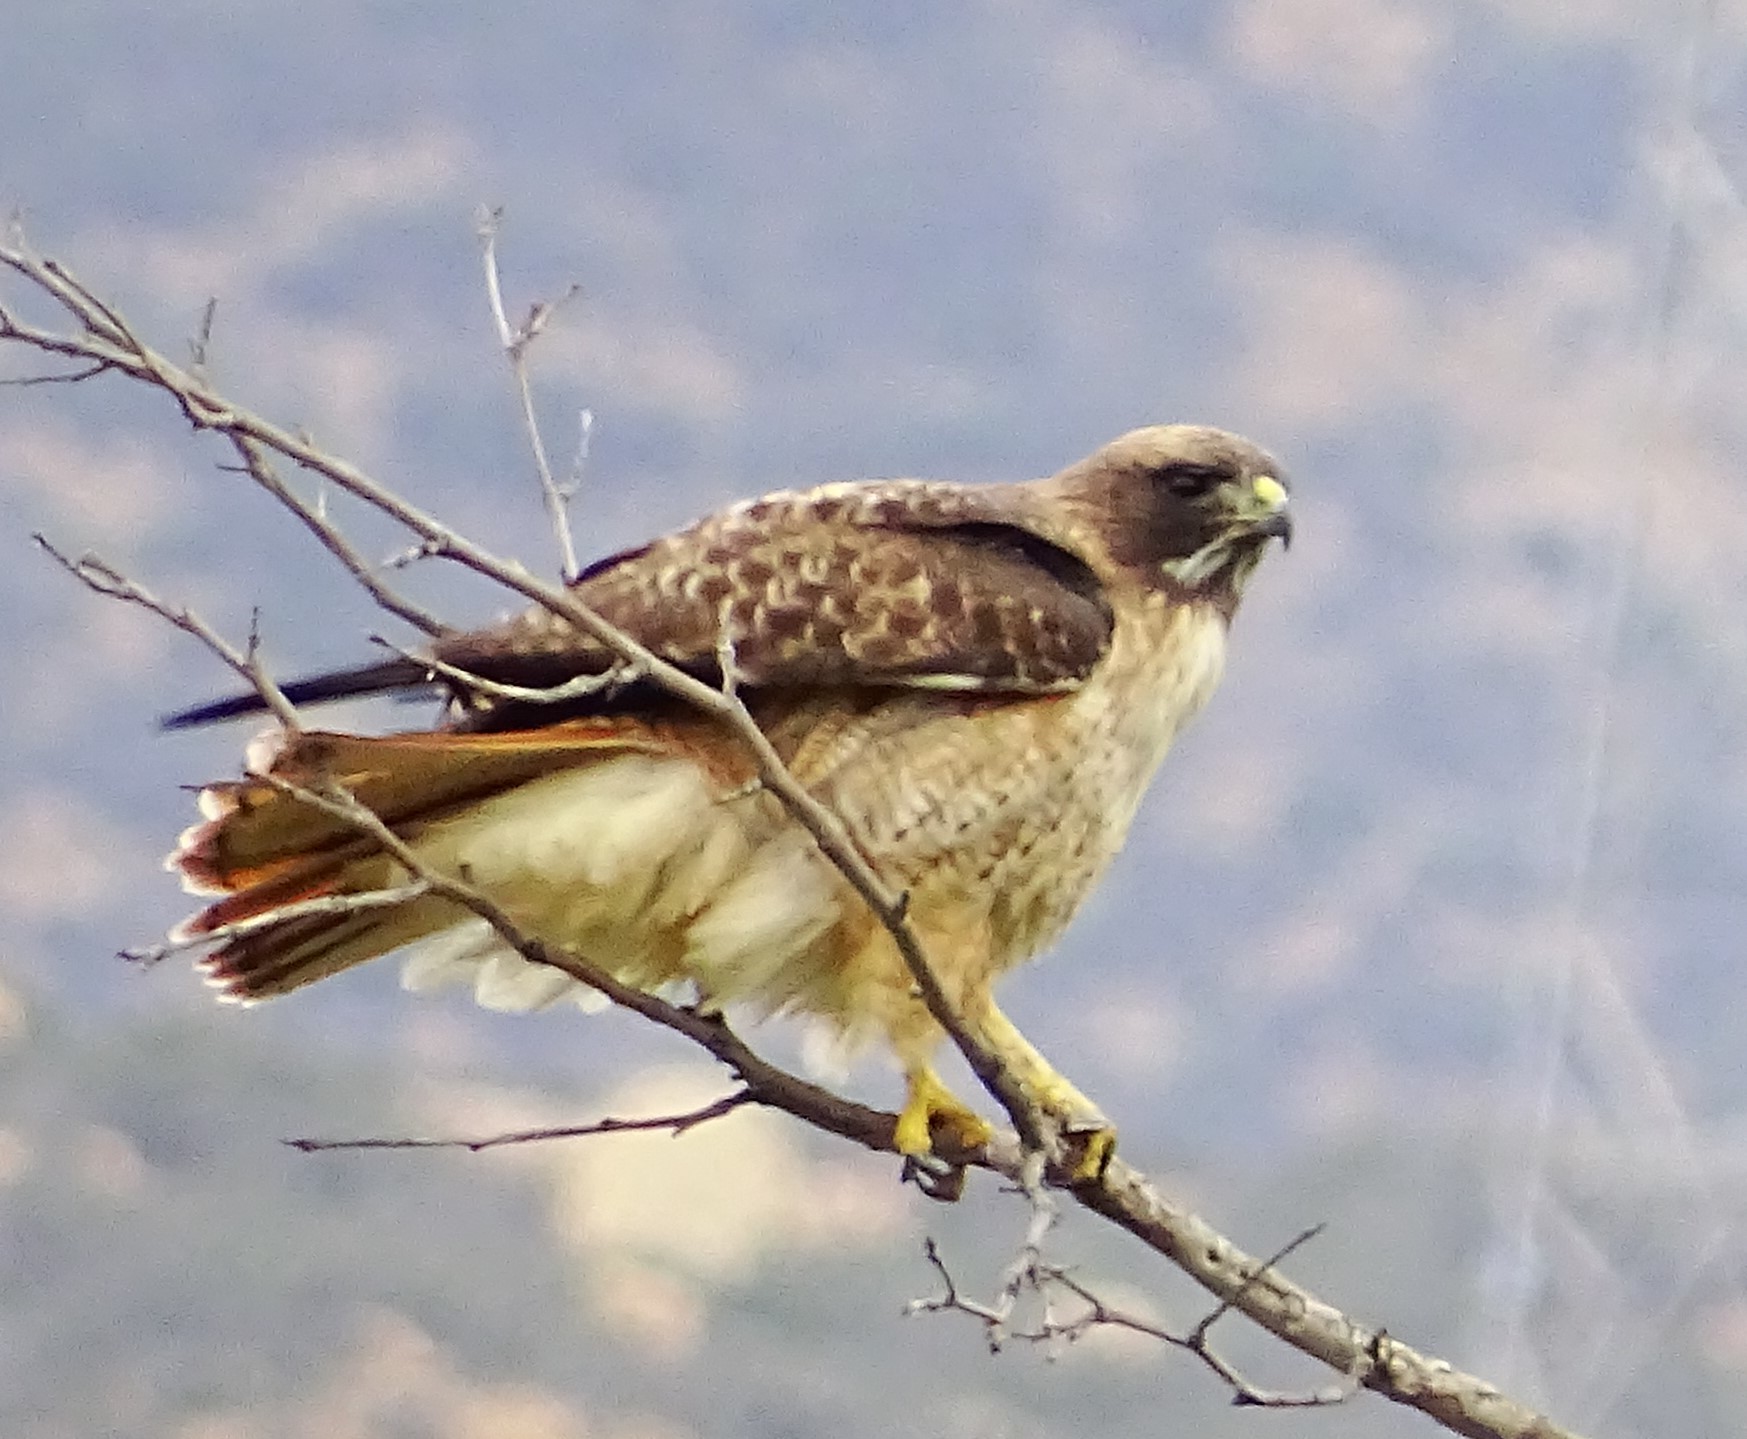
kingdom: Animalia
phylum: Chordata
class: Aves
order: Accipitriformes
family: Accipitridae
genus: Buteo
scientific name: Buteo jamaicensis
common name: Red-tailed hawk
